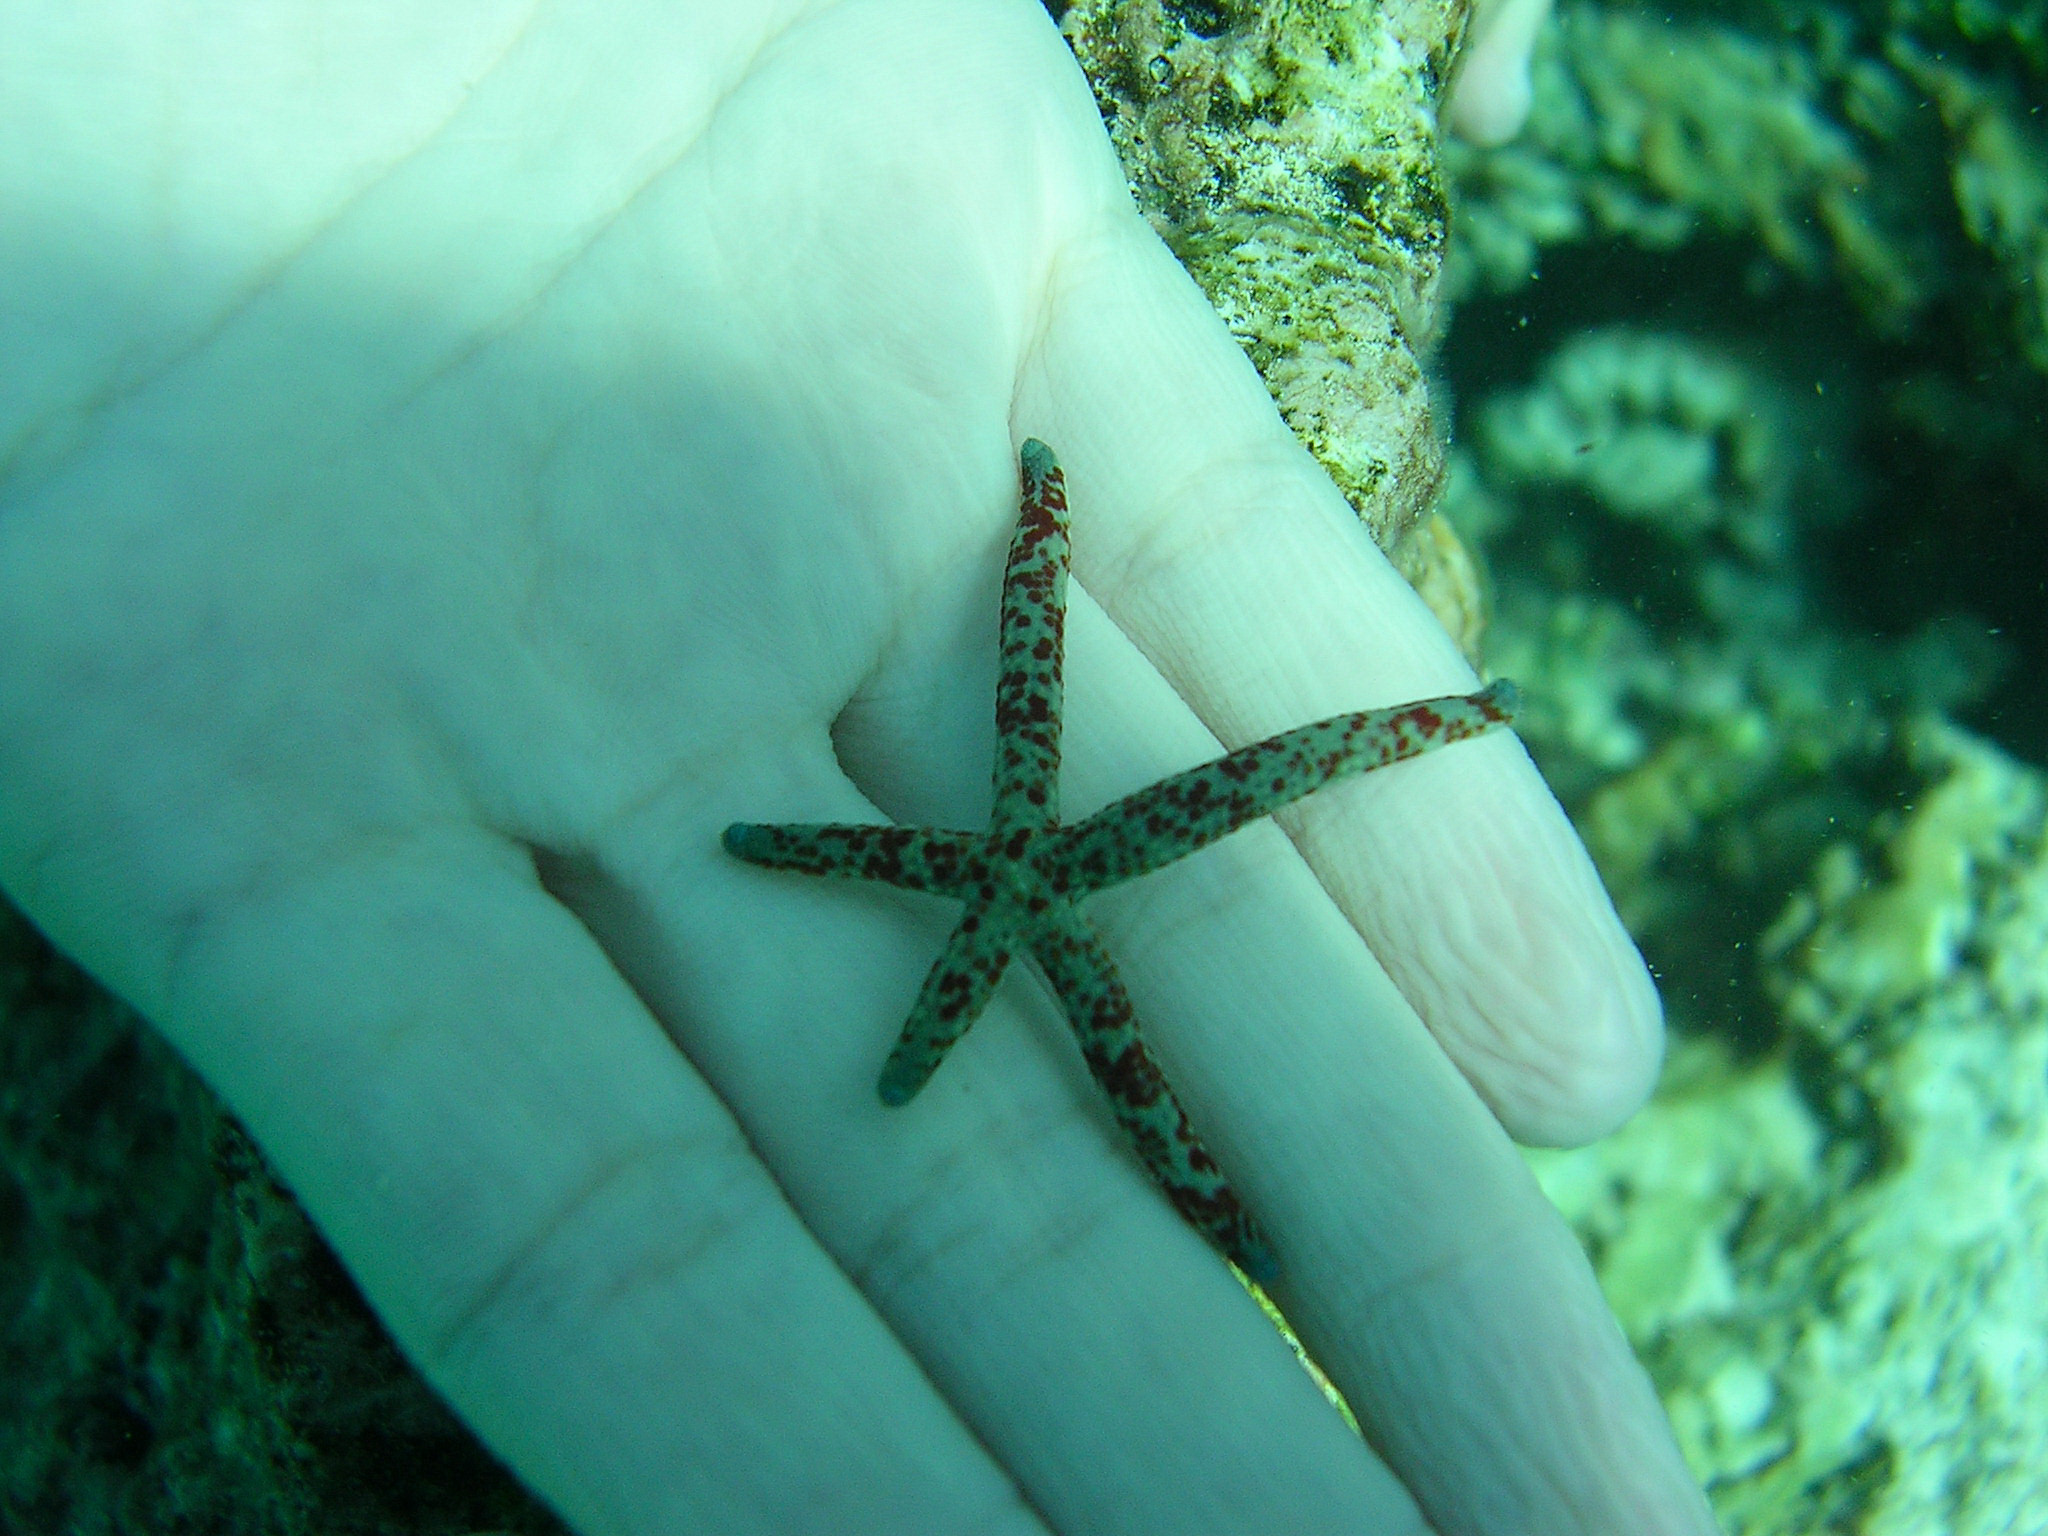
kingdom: Animalia
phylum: Echinodermata
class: Asteroidea
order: Valvatida
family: Ophidiasteridae
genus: Linckia
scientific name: Linckia multifora
